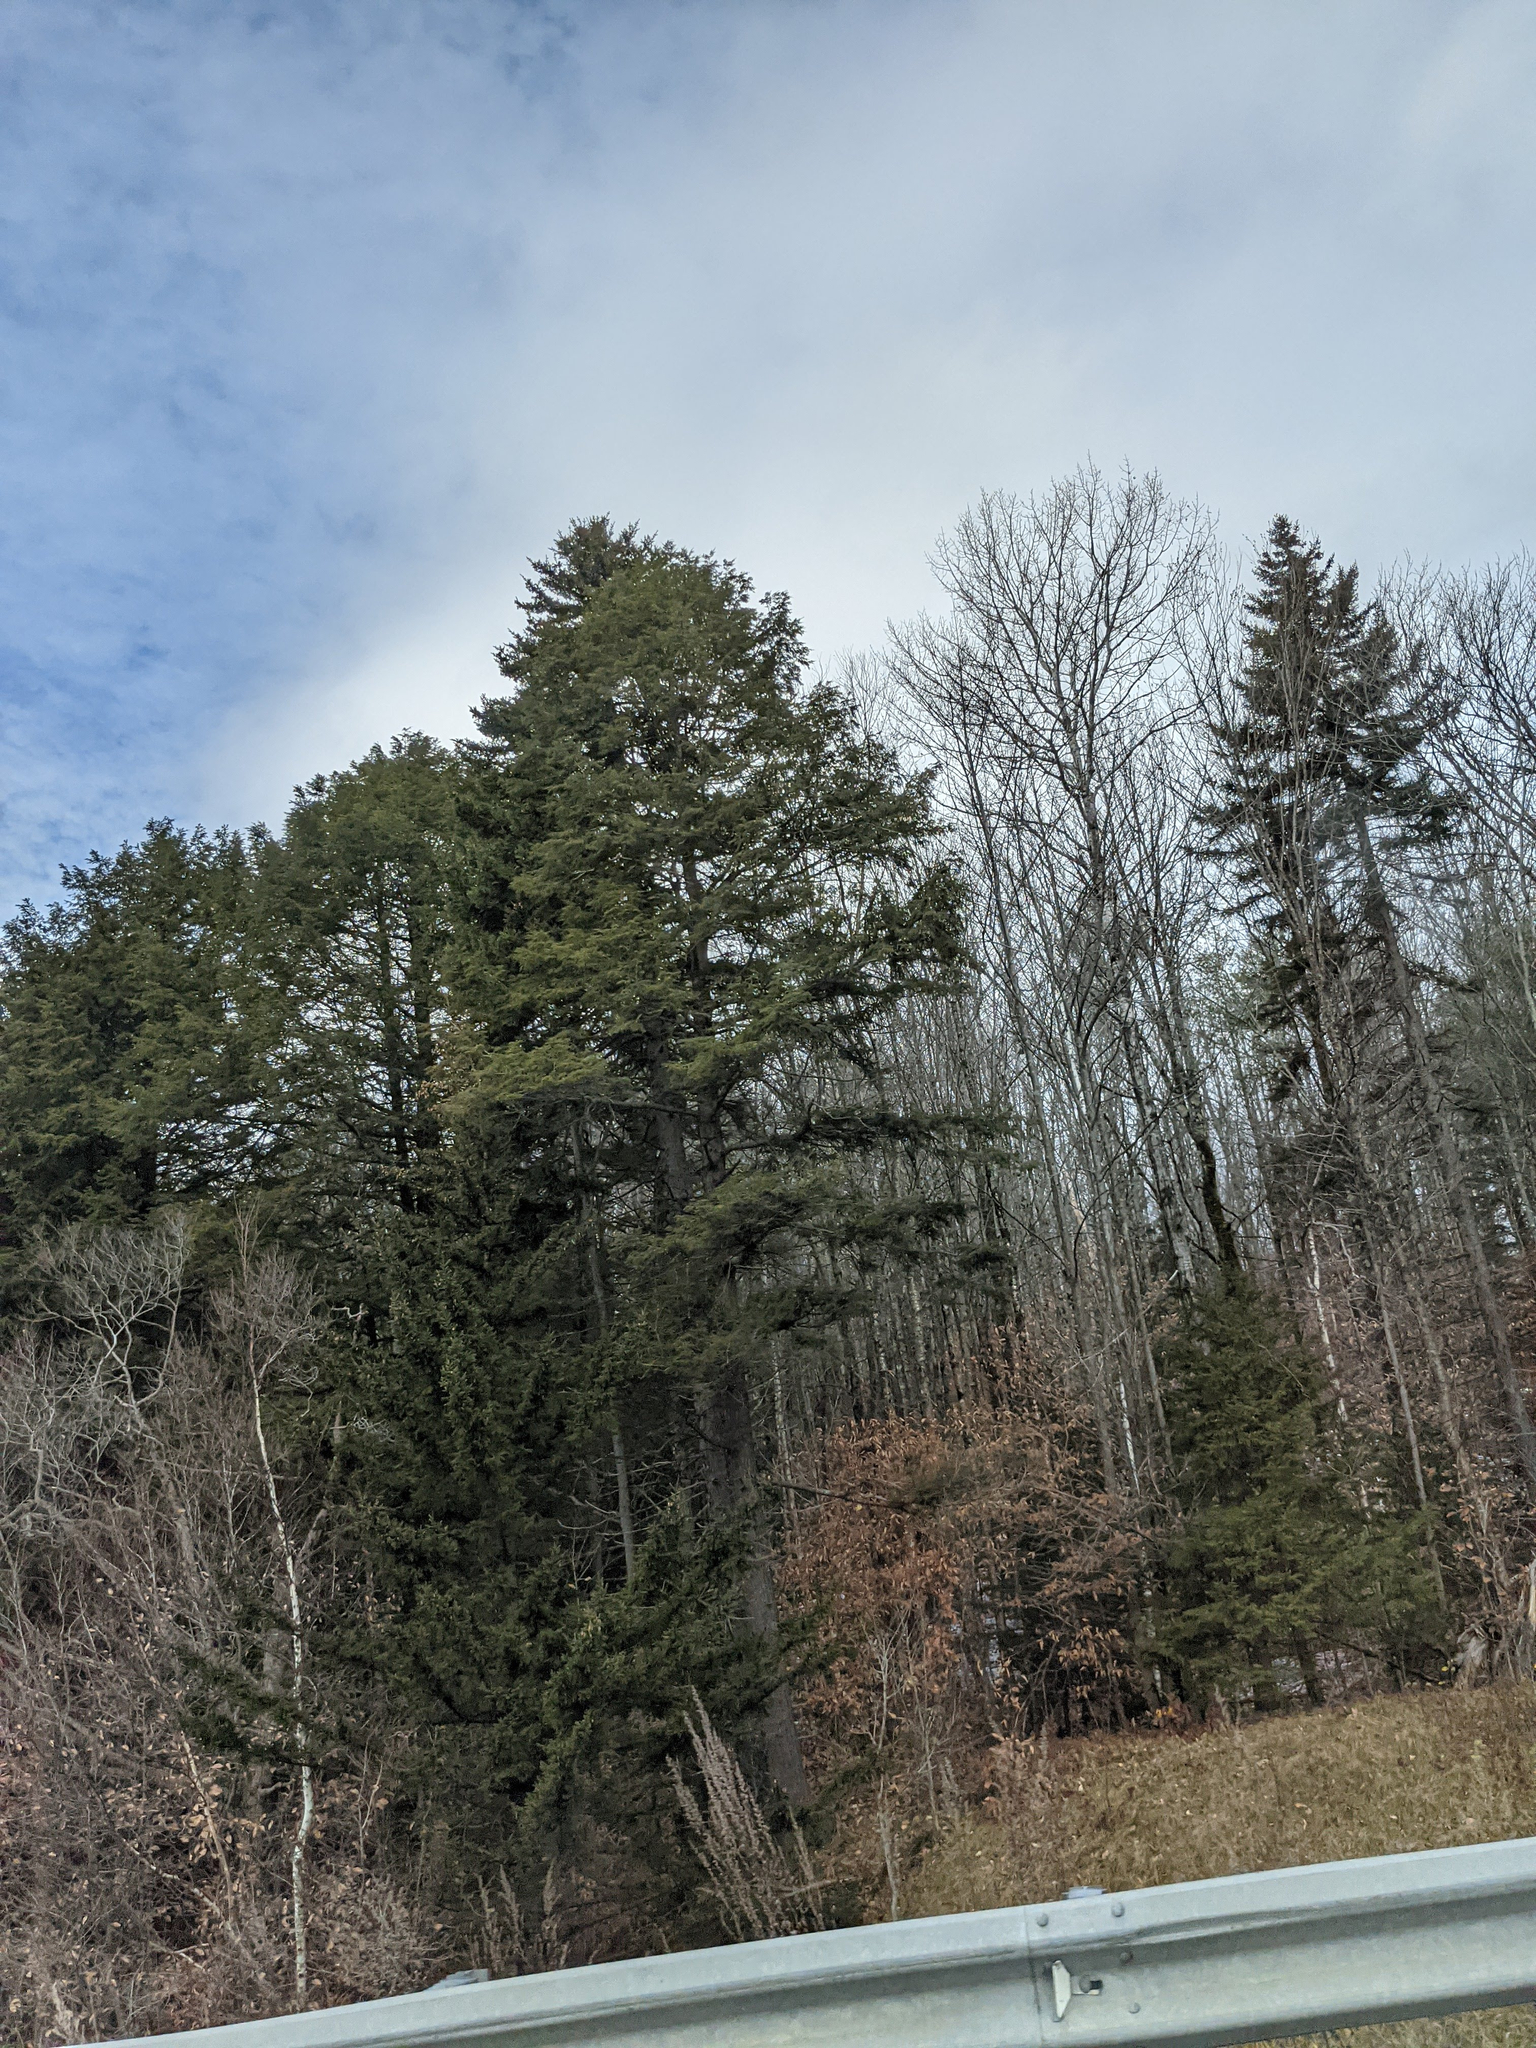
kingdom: Plantae
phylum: Tracheophyta
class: Pinopsida
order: Pinales
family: Pinaceae
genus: Tsuga
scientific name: Tsuga canadensis
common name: Eastern hemlock
